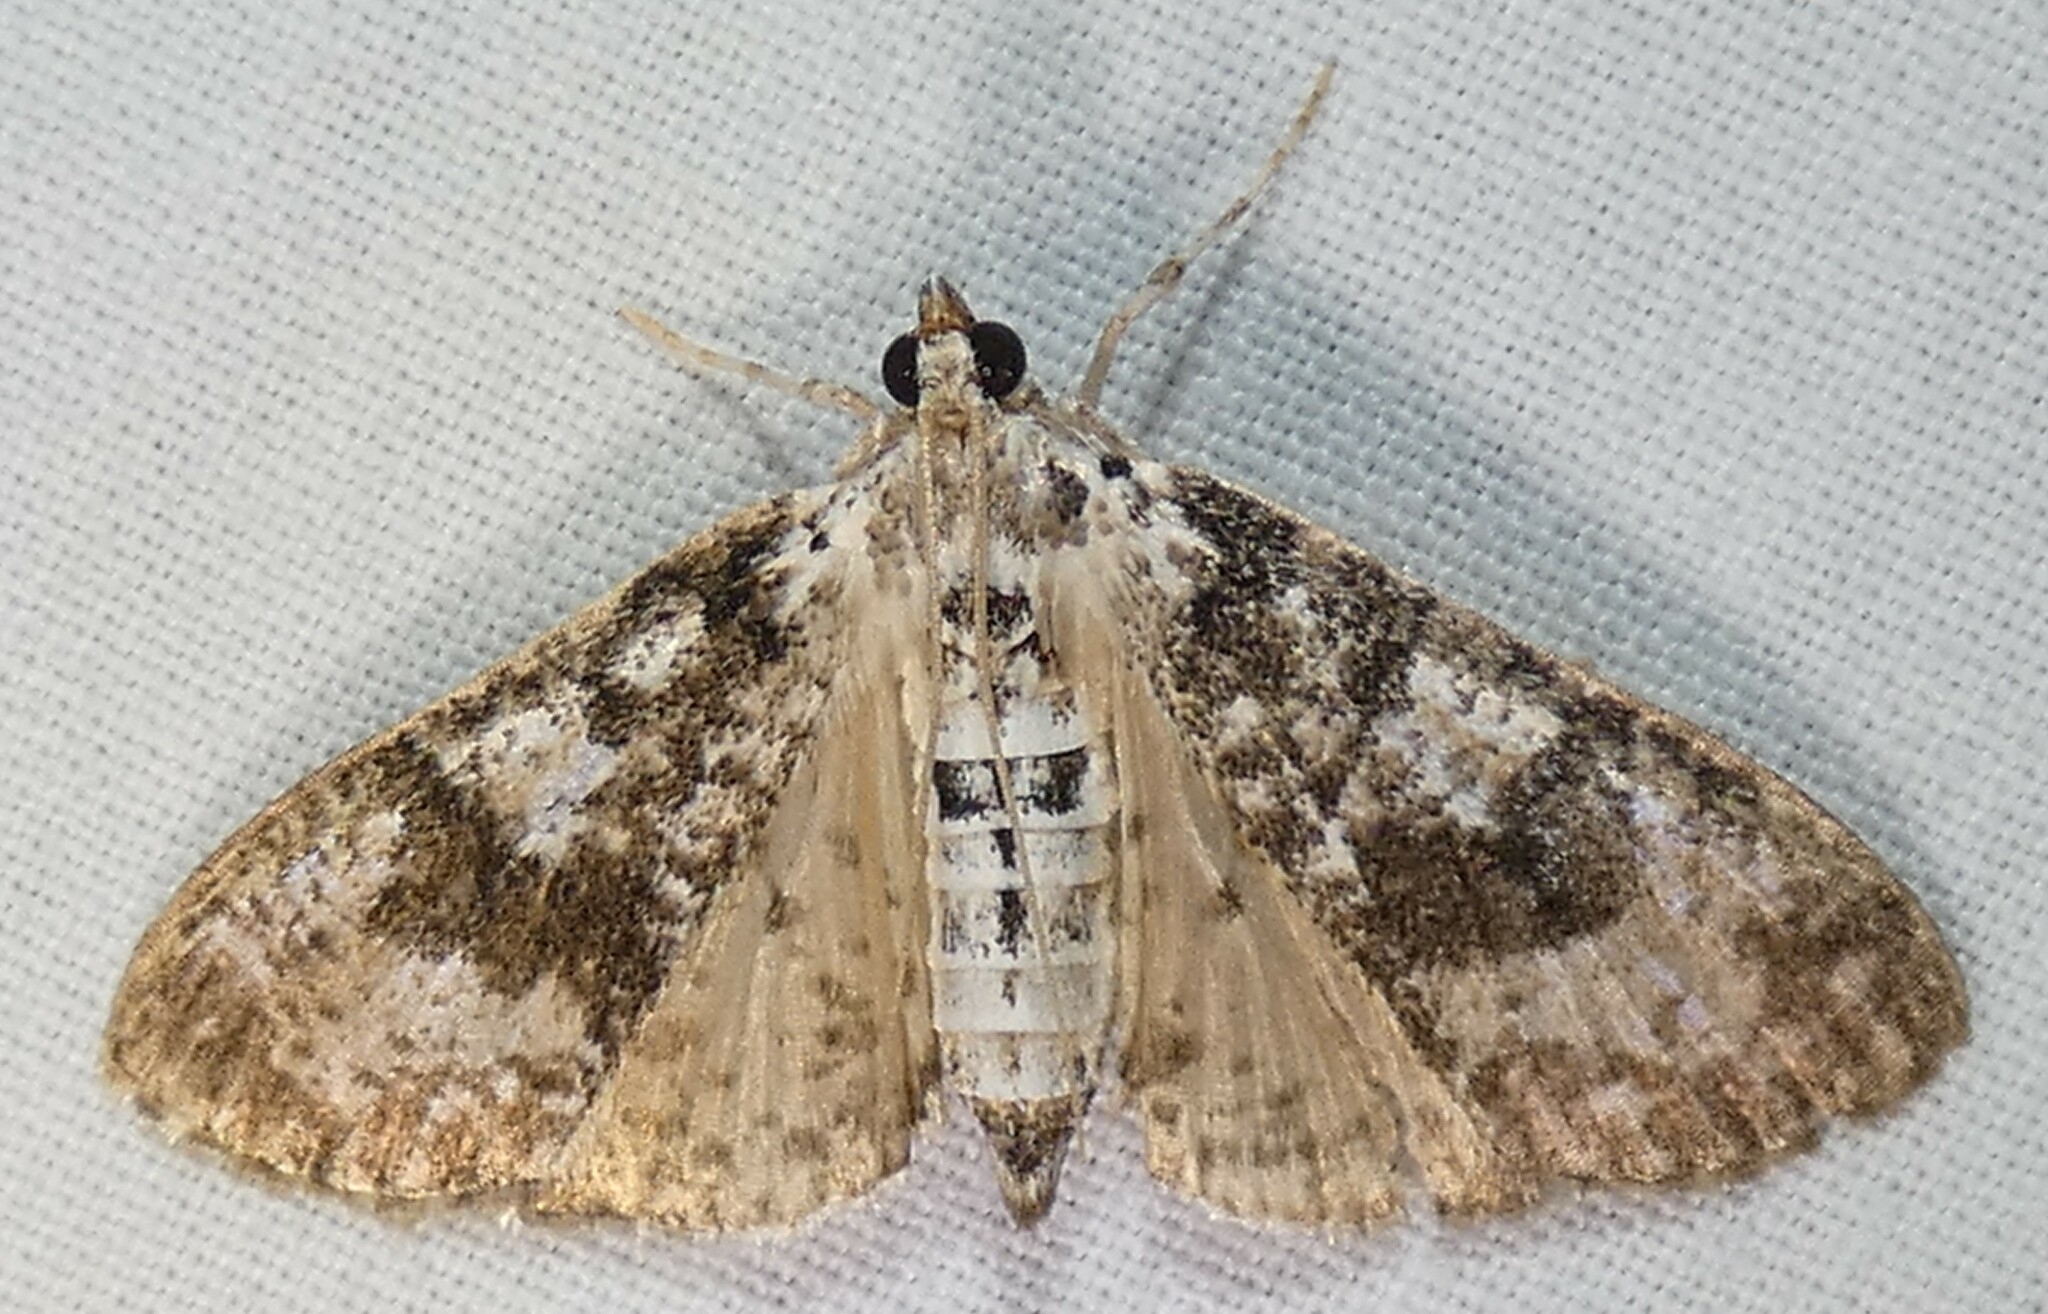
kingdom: Animalia
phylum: Arthropoda
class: Insecta
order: Lepidoptera
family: Crambidae
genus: Palpita
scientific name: Palpita magniferalis
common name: Splendid palpita moth
